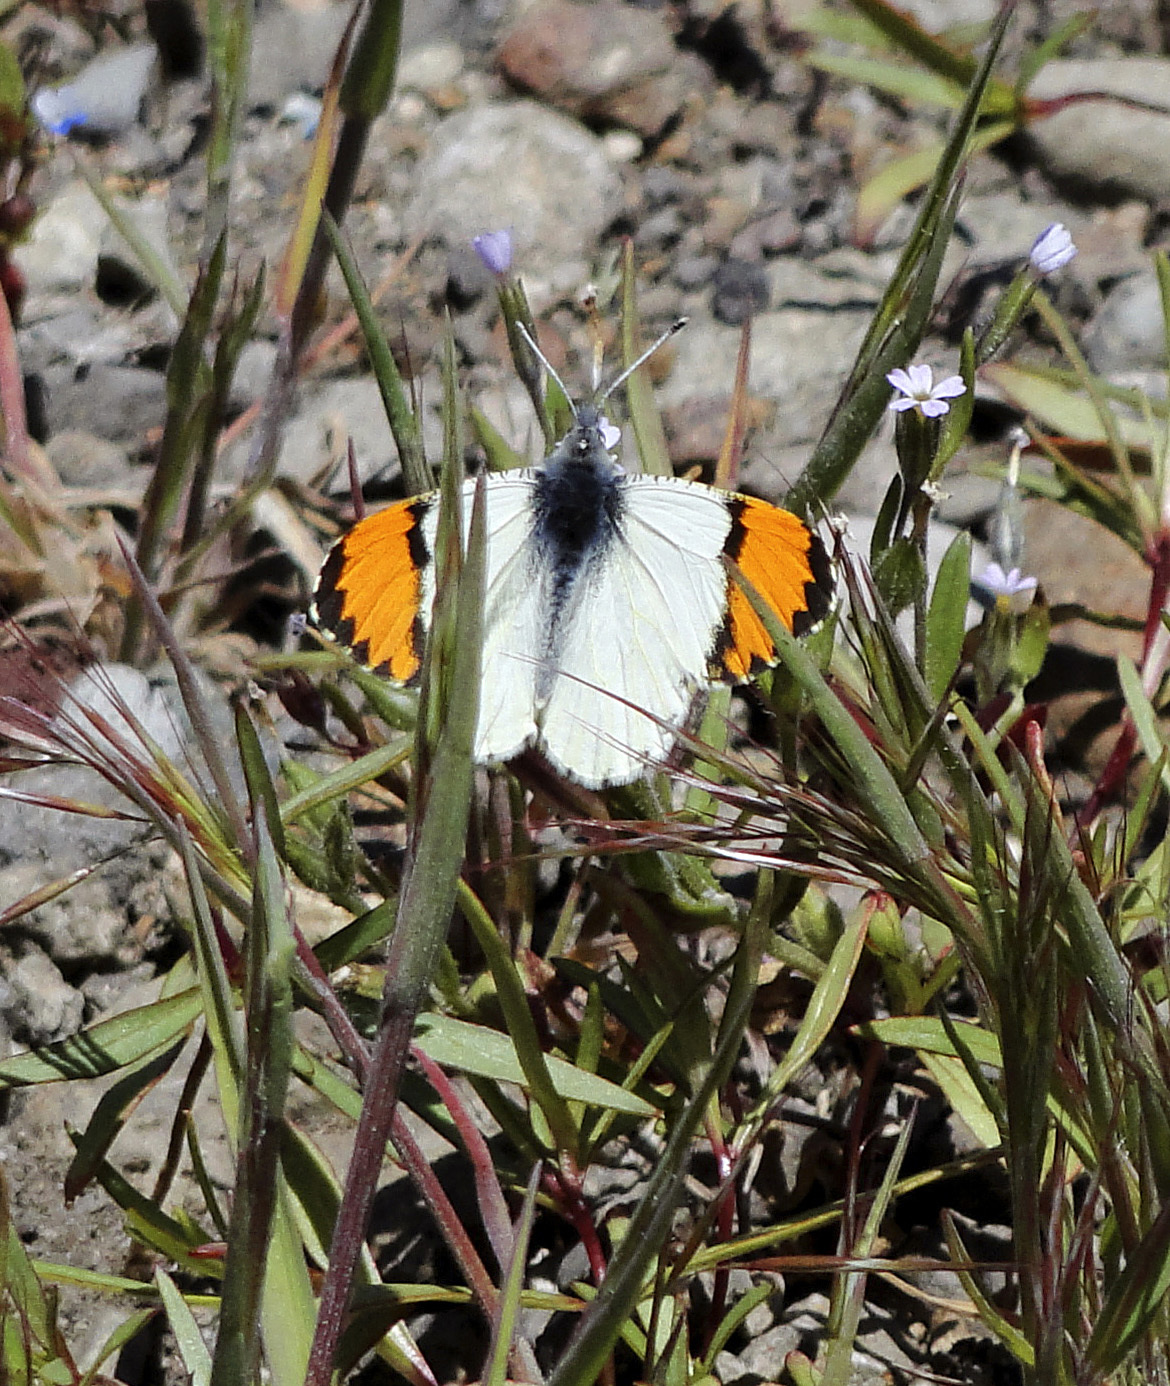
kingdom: Animalia
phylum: Arthropoda
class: Insecta
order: Lepidoptera
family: Pieridae
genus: Anthocharis
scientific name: Anthocharis sara
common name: Sara's orangetip
